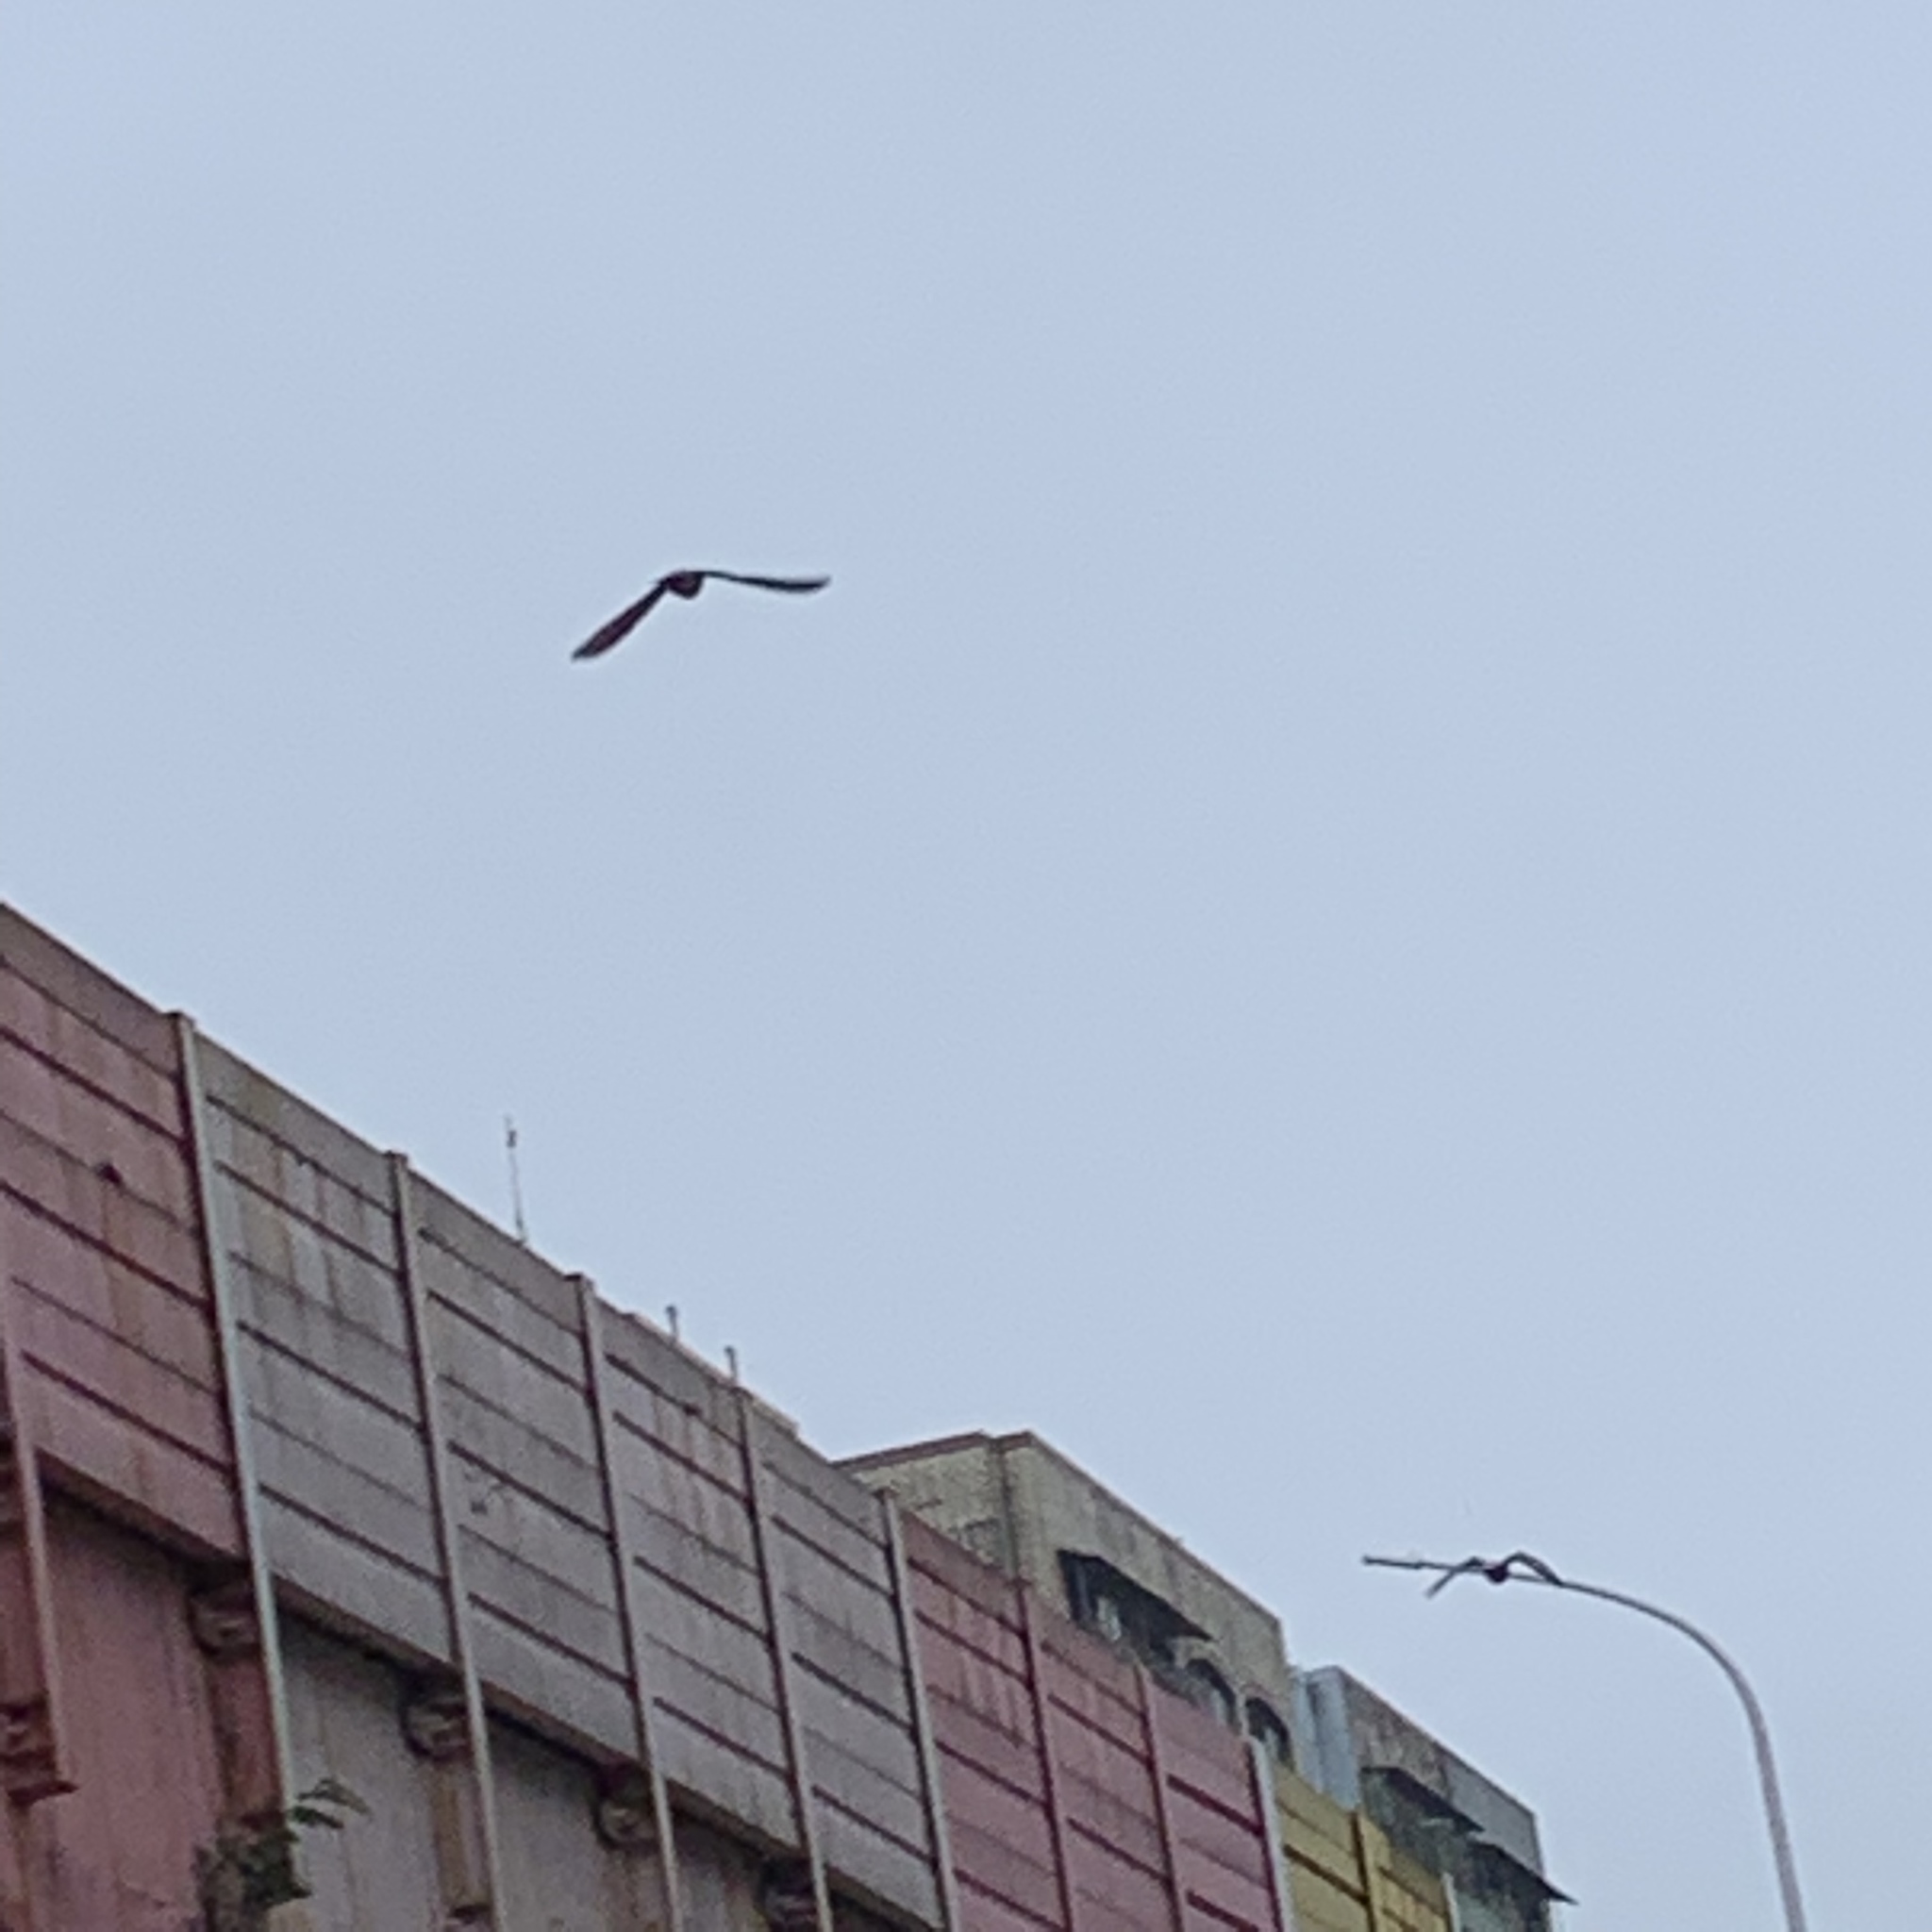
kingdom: Animalia
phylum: Chordata
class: Aves
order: Columbiformes
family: Columbidae
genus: Columba
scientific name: Columba livia
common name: Rock pigeon
